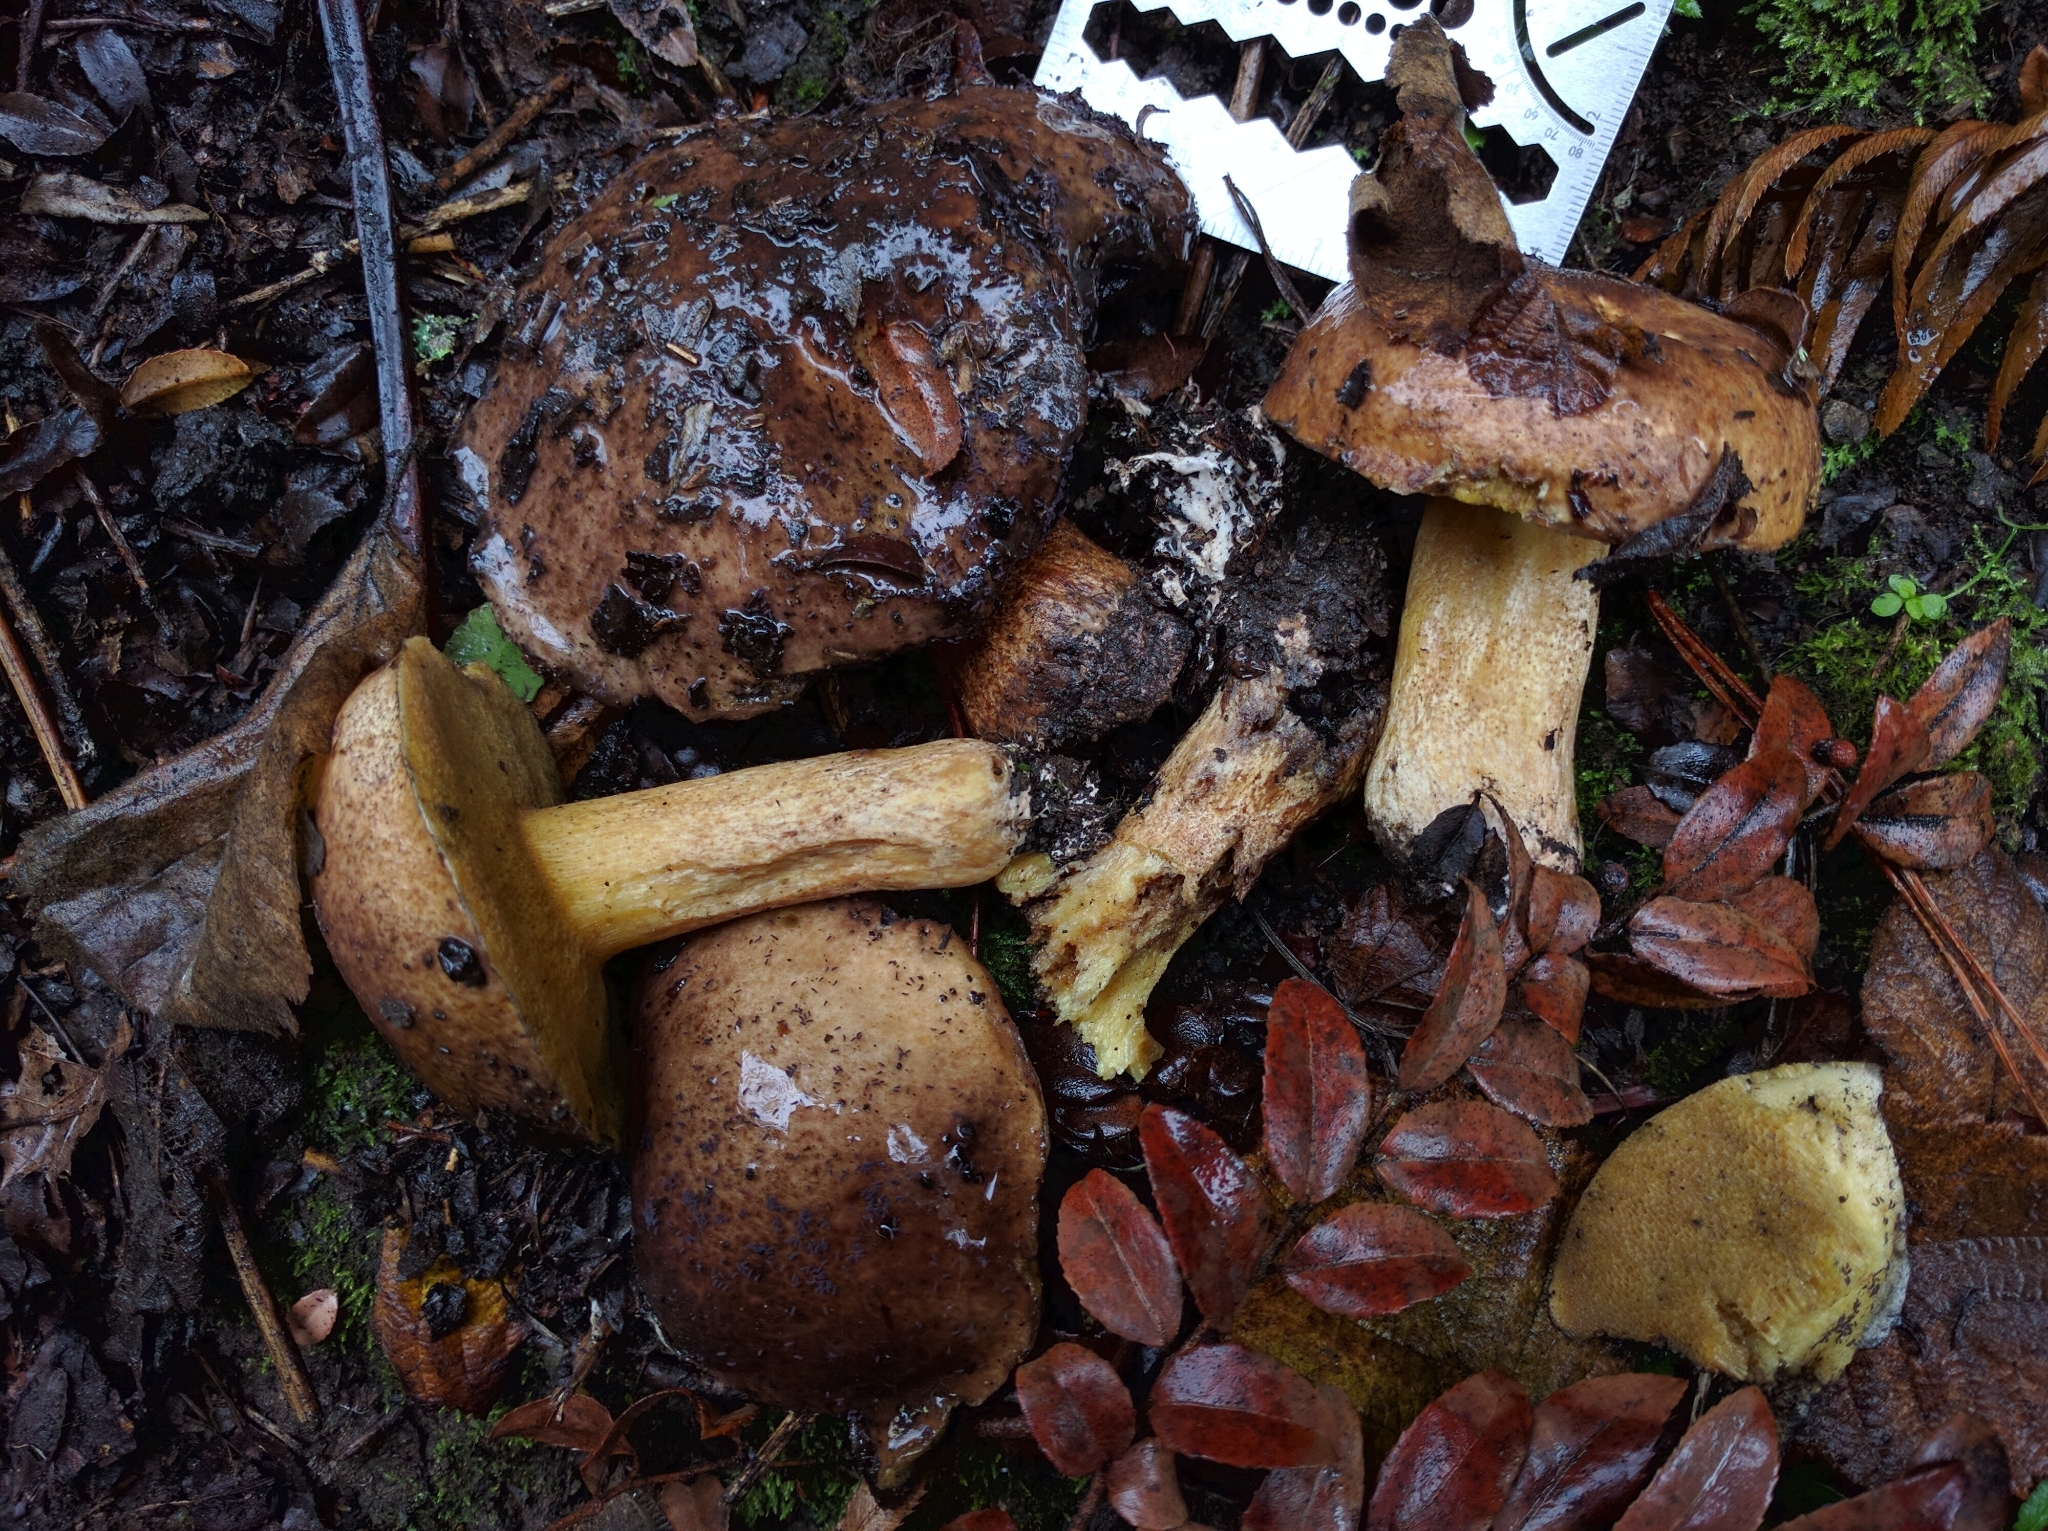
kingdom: Fungi
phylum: Basidiomycota
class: Agaricomycetes
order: Boletales
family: Suillaceae
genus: Suillus
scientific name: Suillus fuscotomentosus
